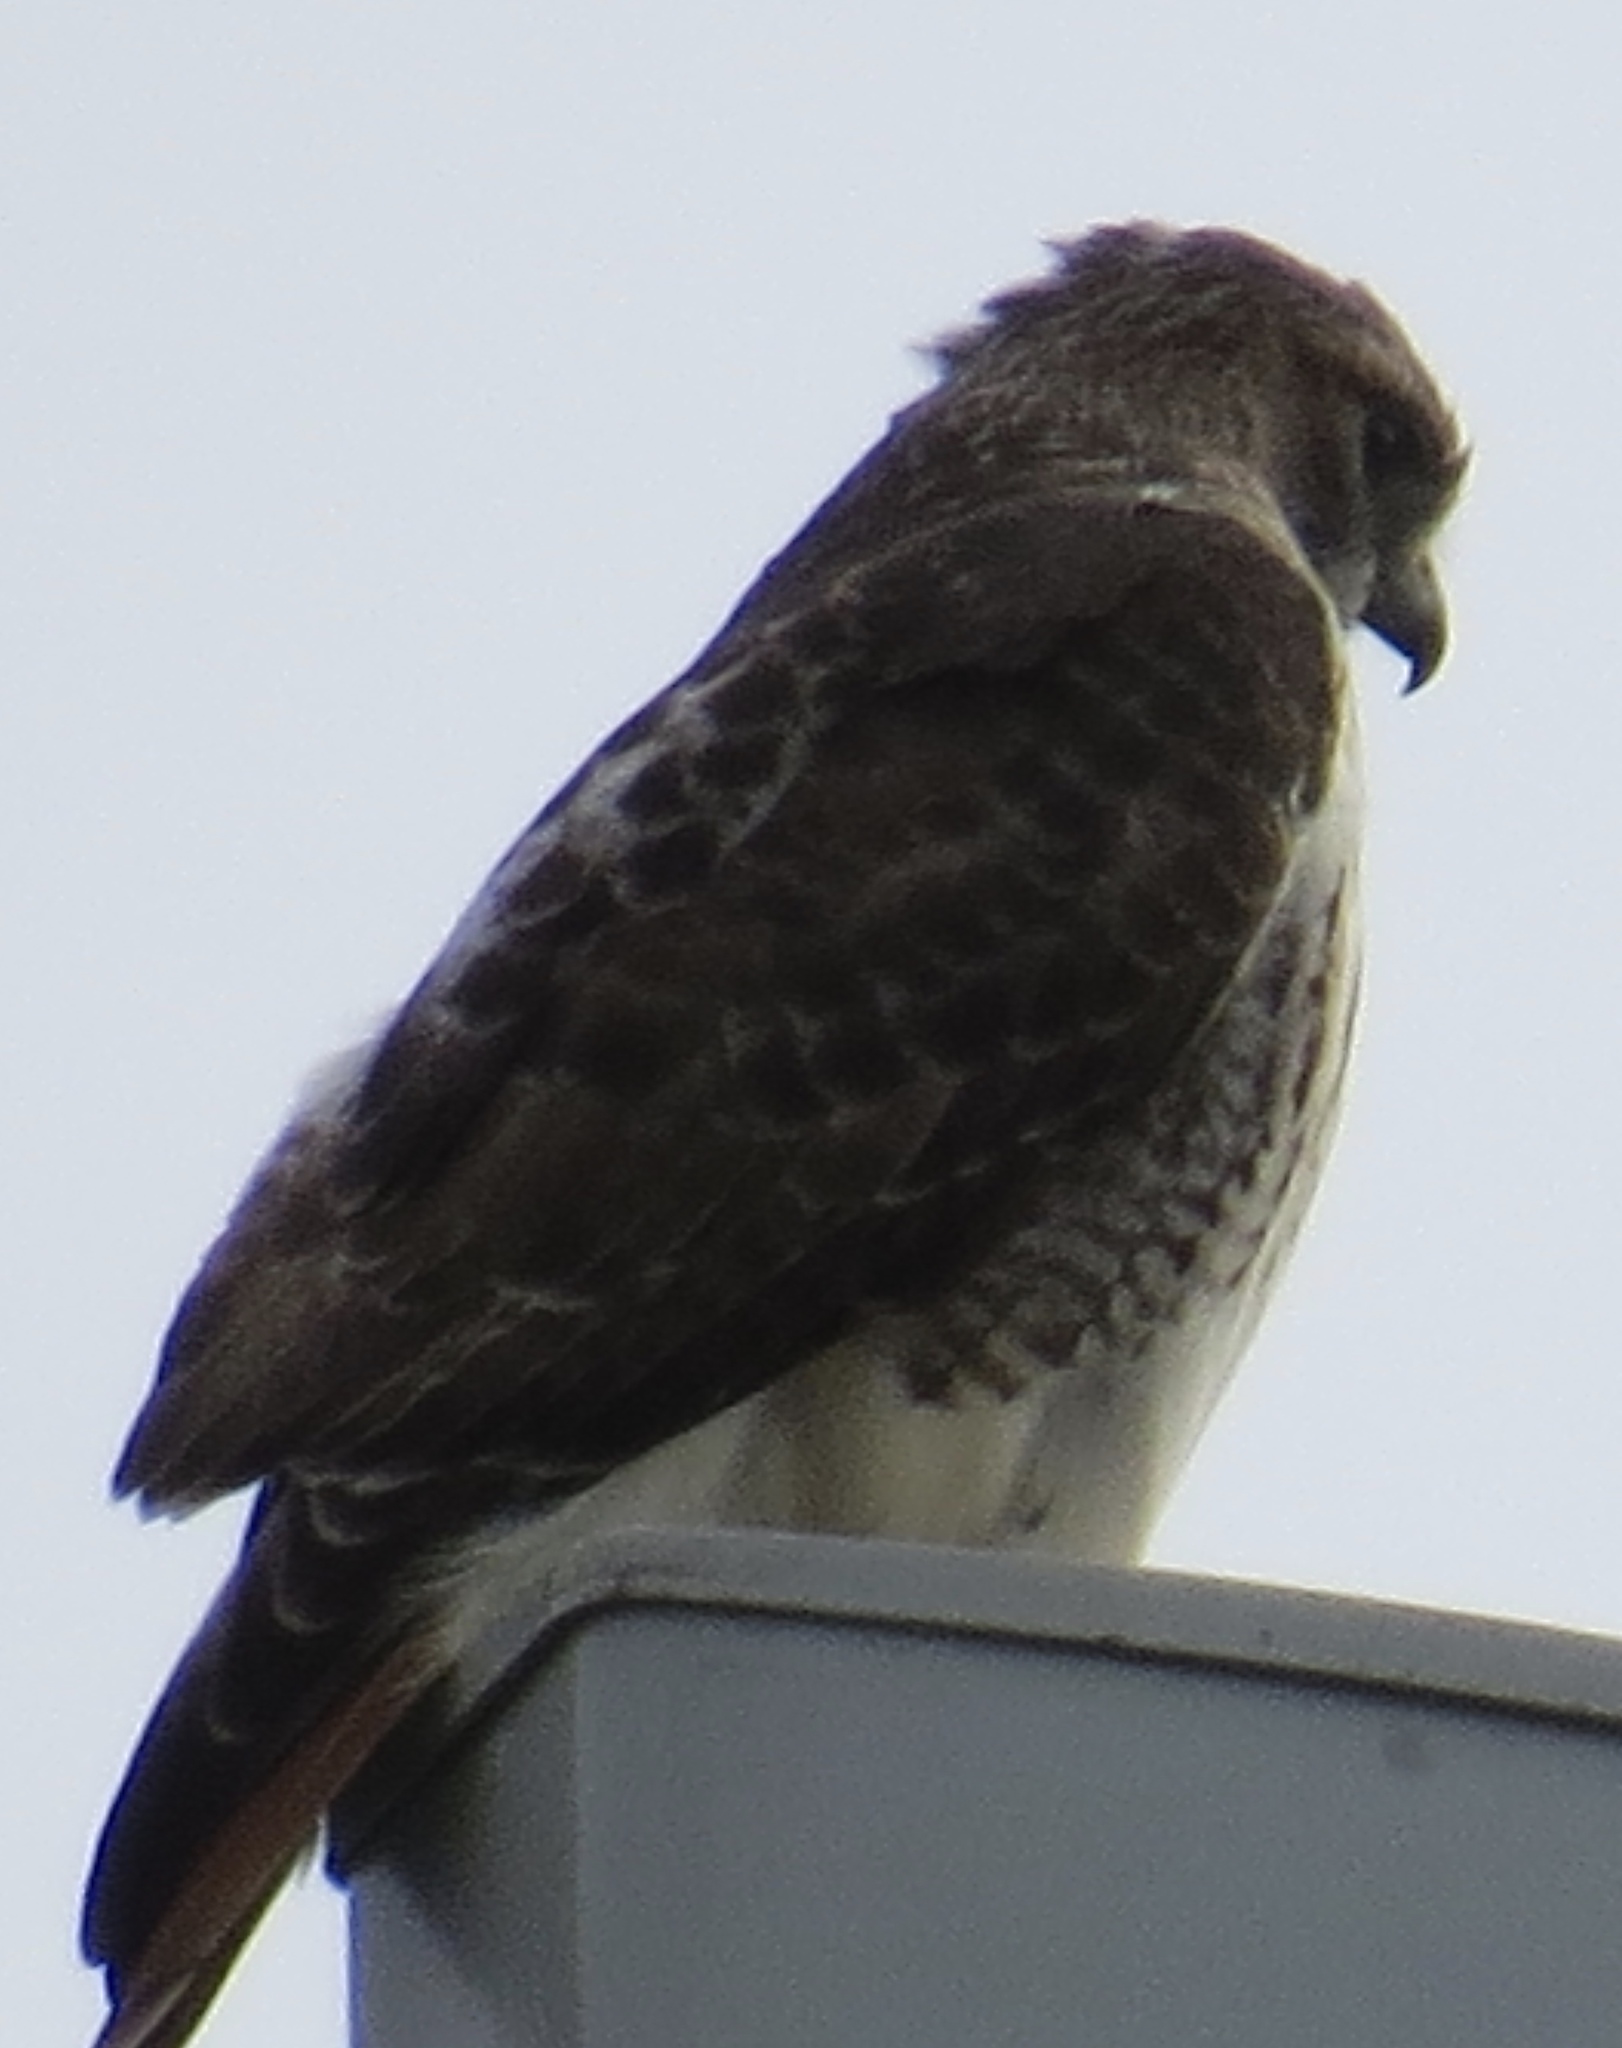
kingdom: Animalia
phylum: Chordata
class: Aves
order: Accipitriformes
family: Accipitridae
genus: Buteo
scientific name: Buteo jamaicensis
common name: Red-tailed hawk
